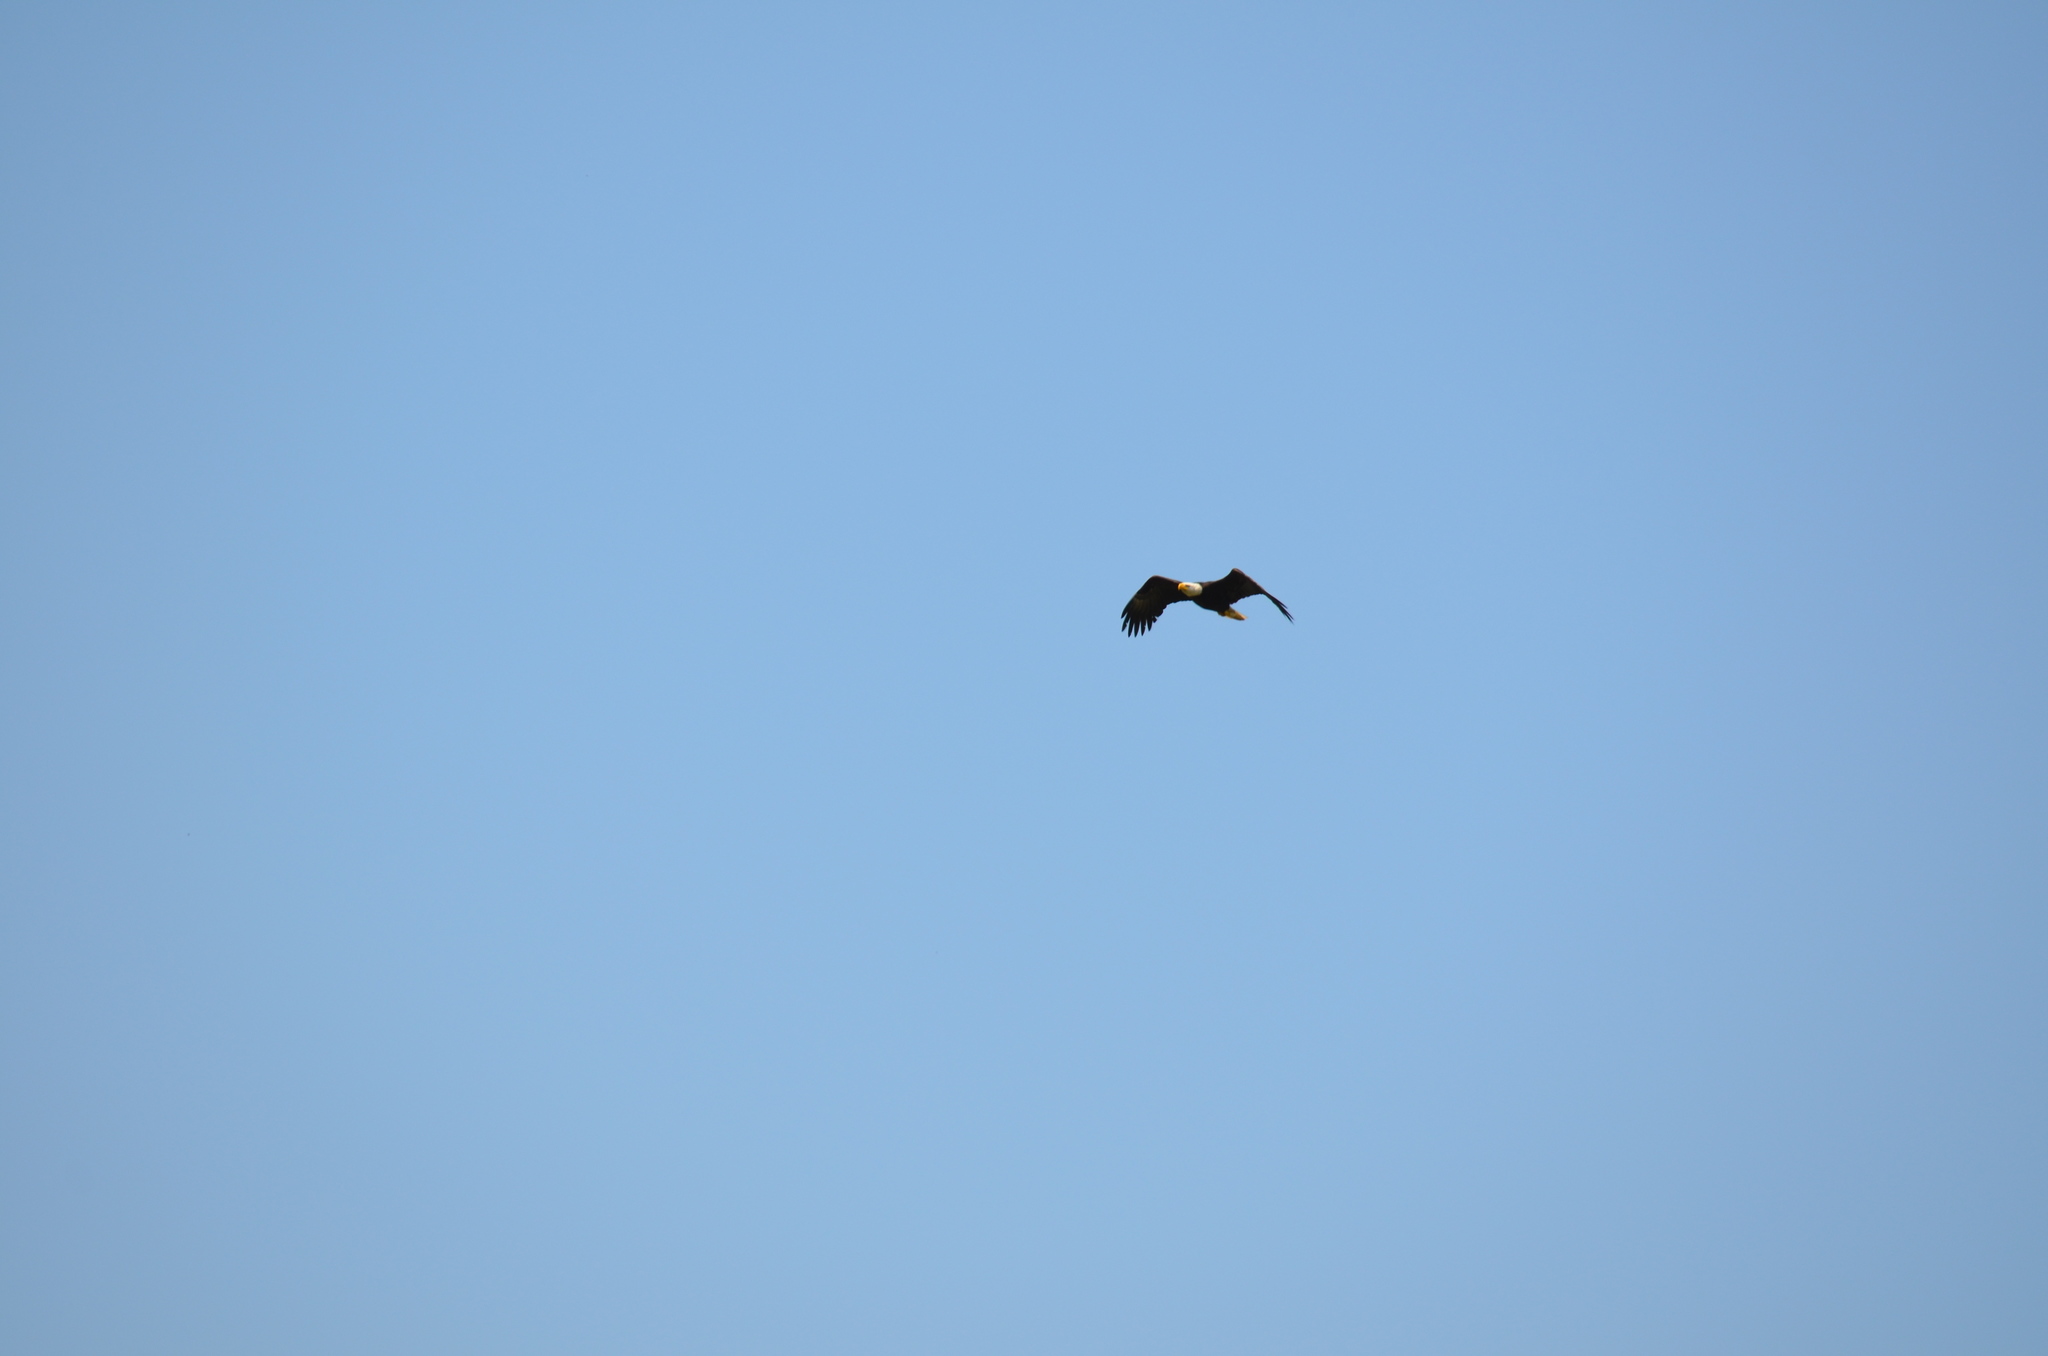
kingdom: Animalia
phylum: Chordata
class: Aves
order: Accipitriformes
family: Accipitridae
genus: Haliaeetus
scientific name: Haliaeetus leucocephalus
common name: Bald eagle
